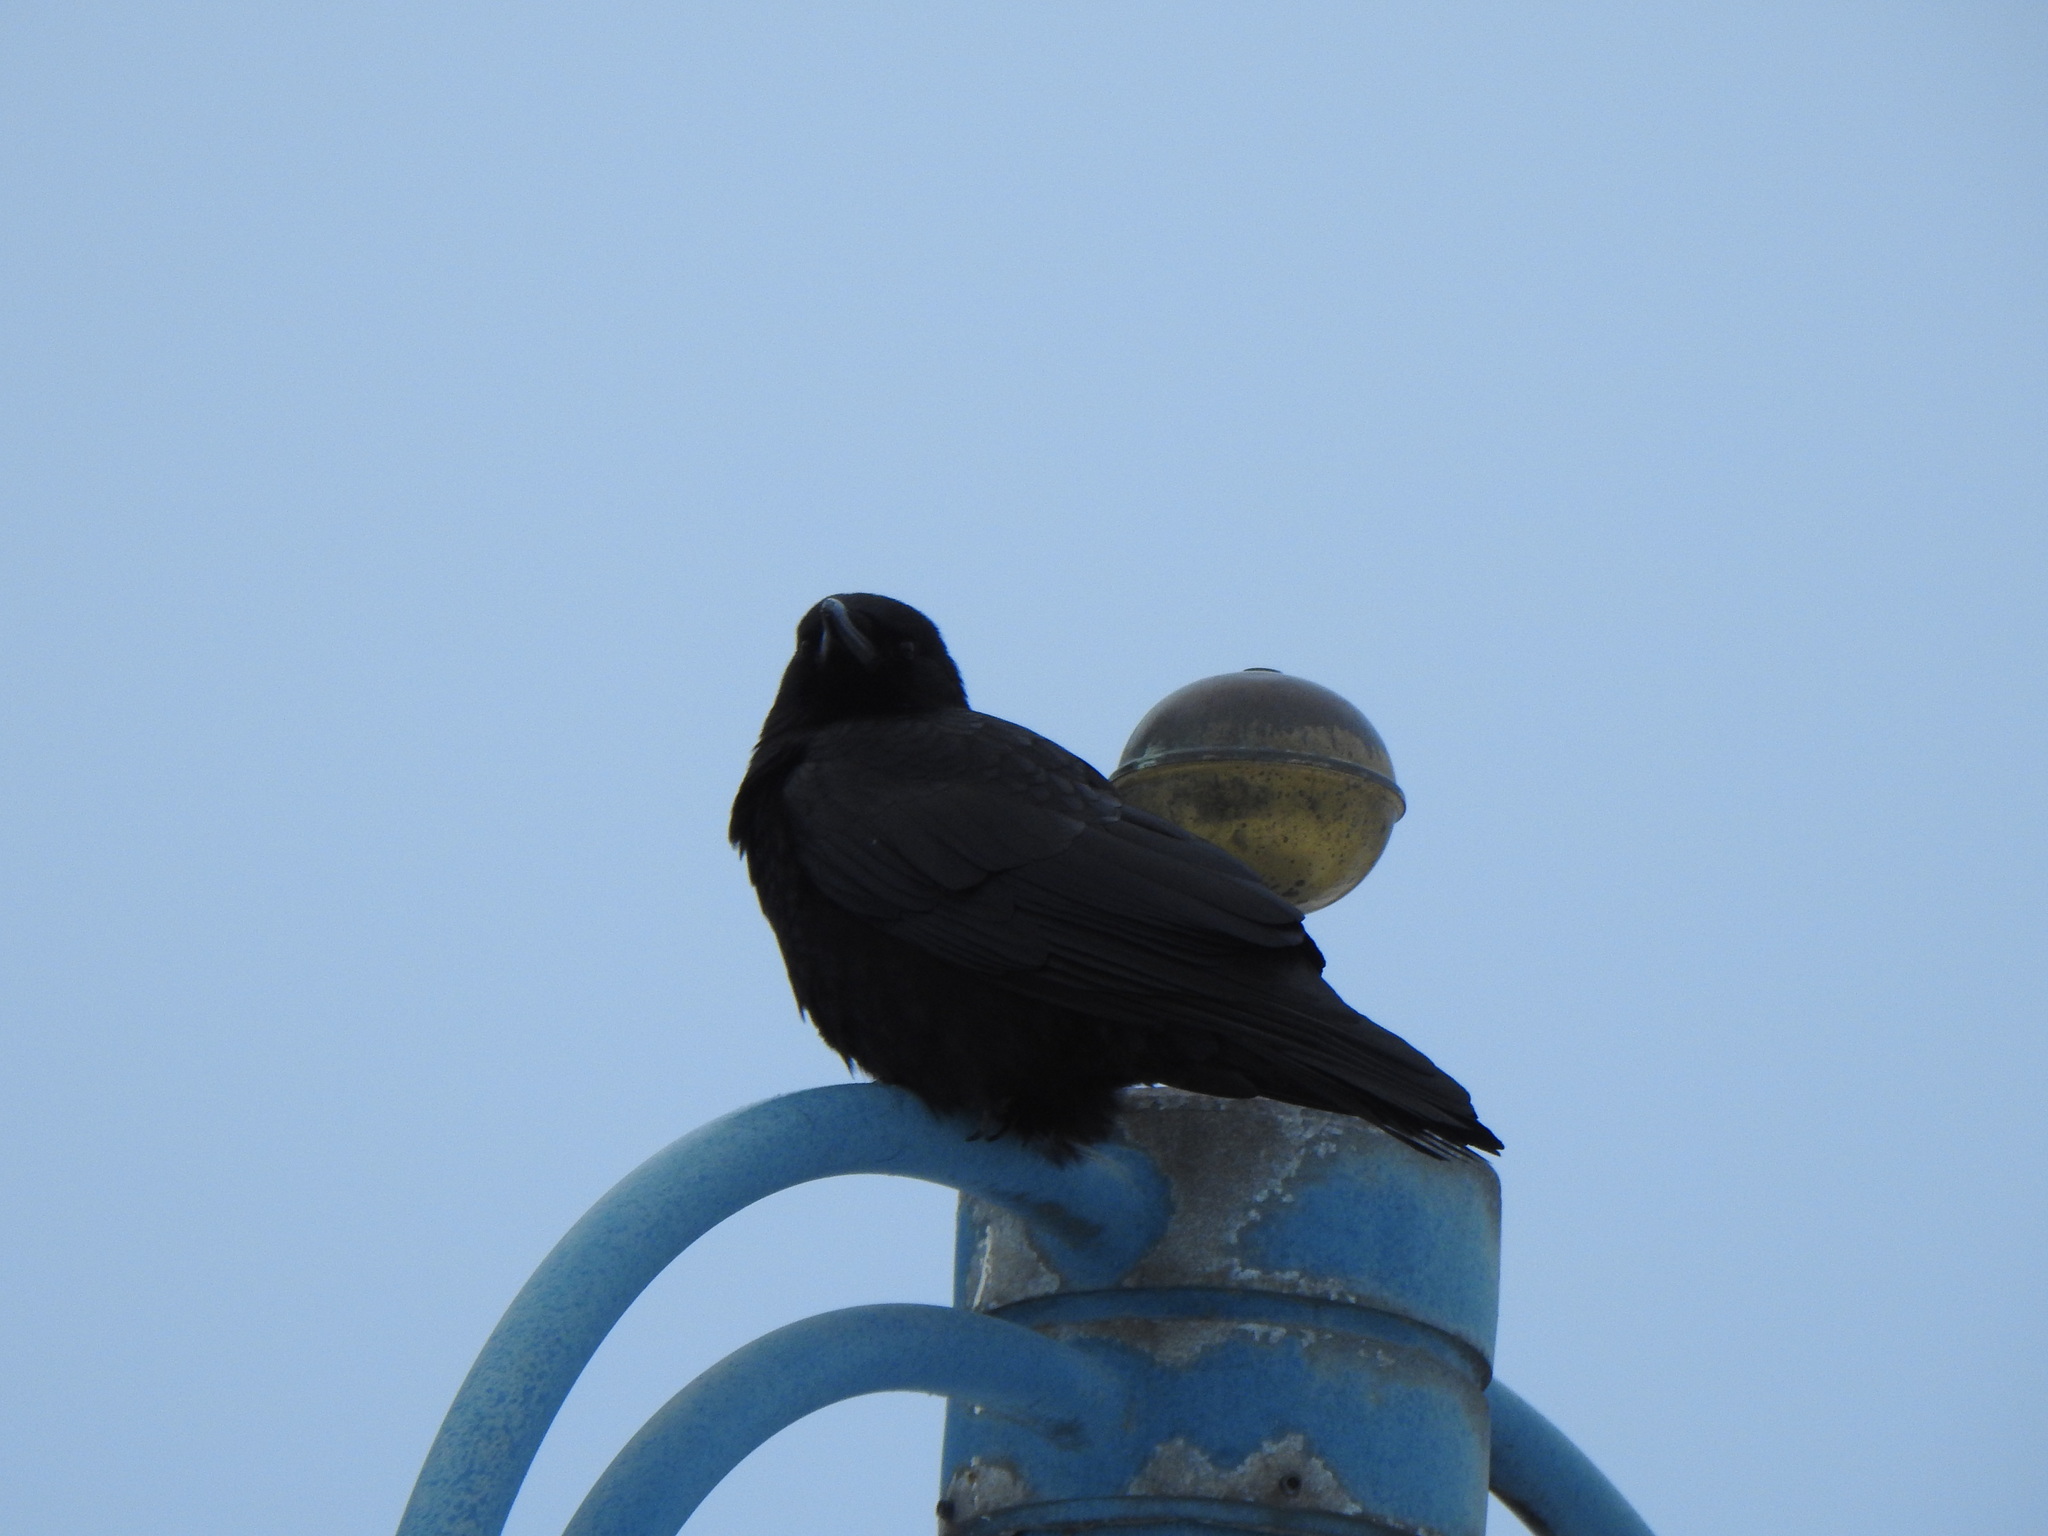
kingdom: Animalia
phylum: Chordata
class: Aves
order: Passeriformes
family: Corvidae
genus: Corvus
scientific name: Corvus brachyrhynchos
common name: American crow
